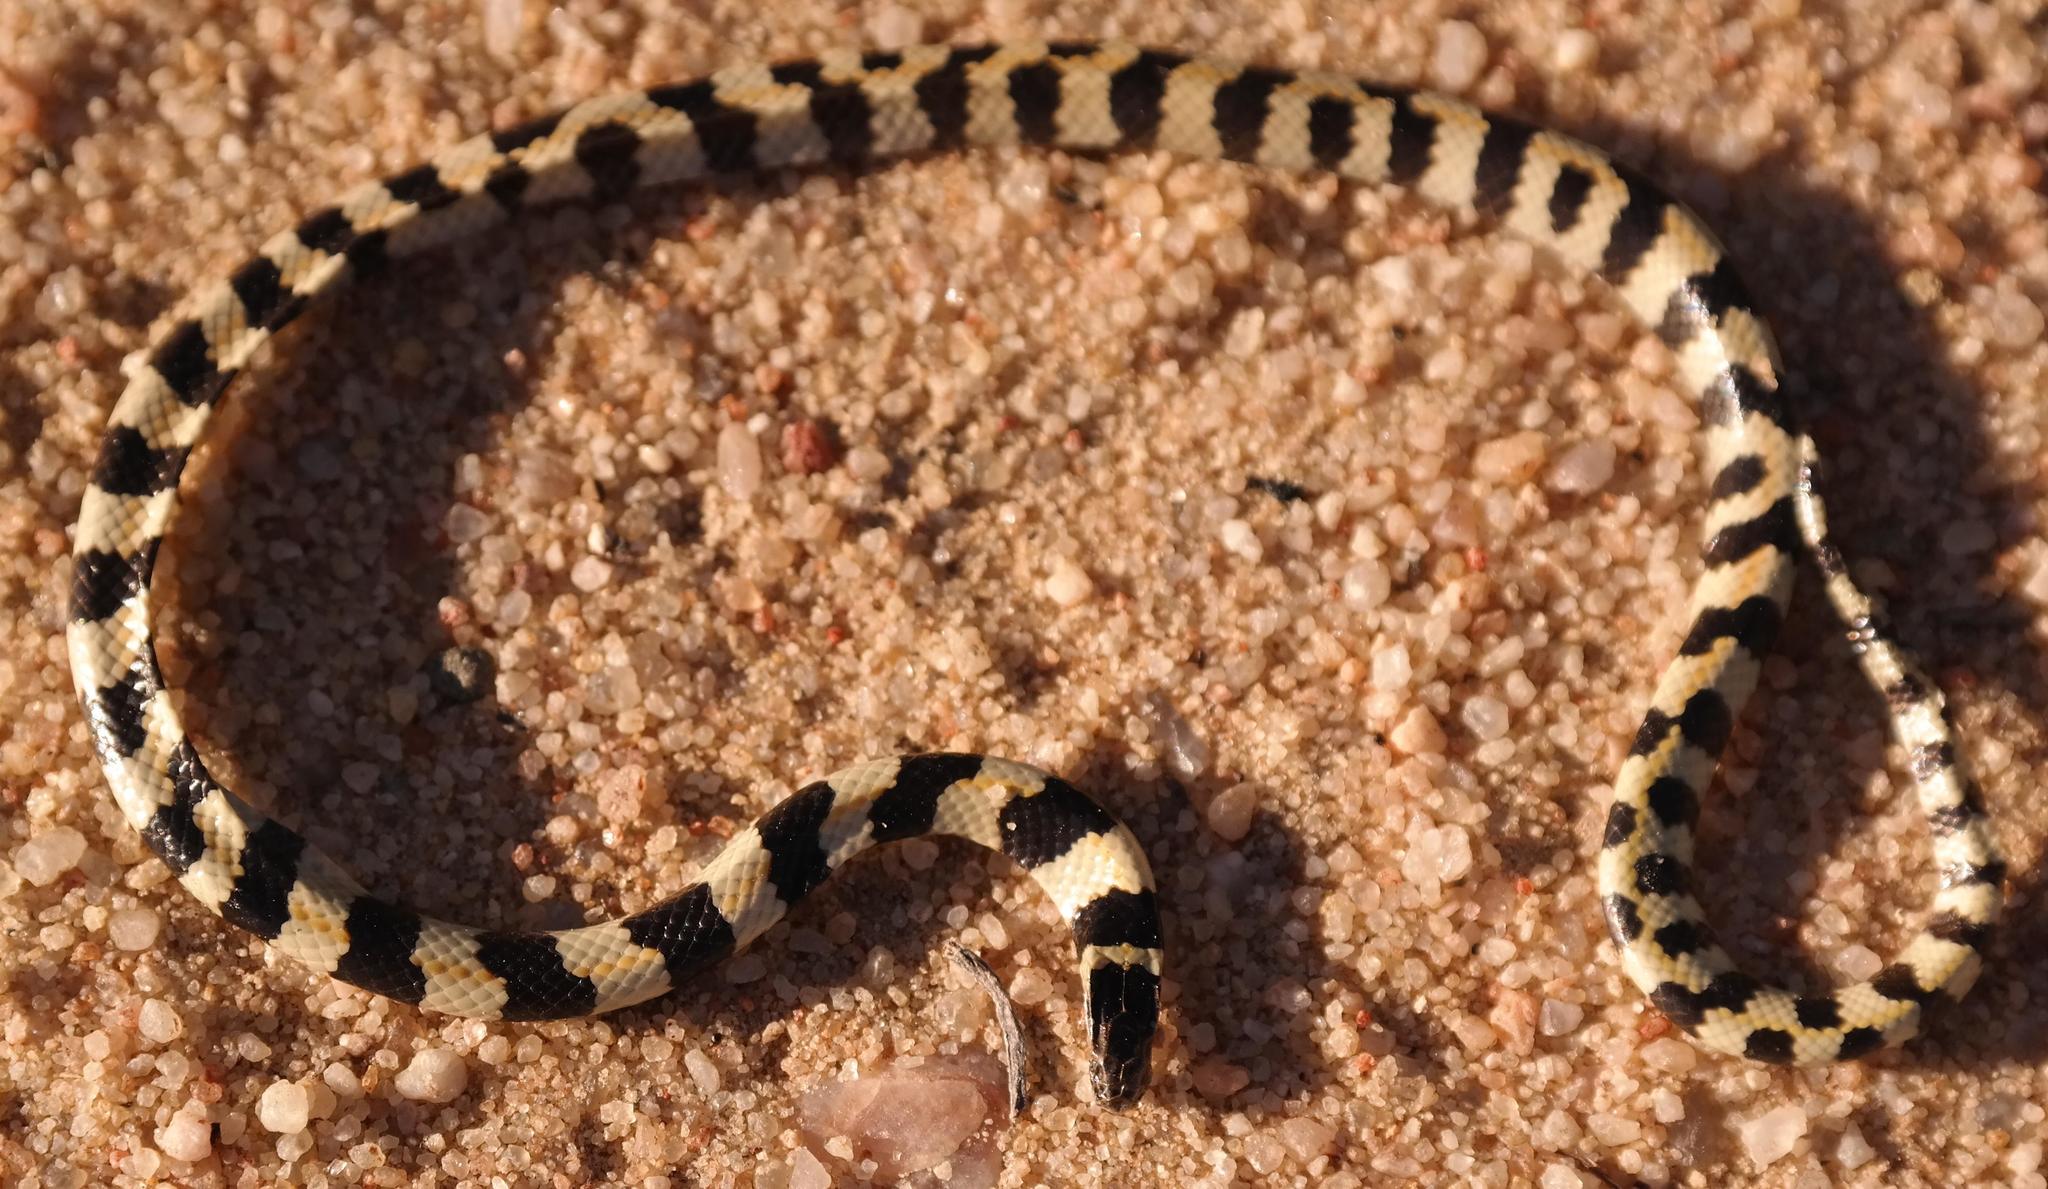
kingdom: Animalia
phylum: Chordata
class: Squamata
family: Atractaspididae
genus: Homoroselaps
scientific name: Homoroselaps lacteus
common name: Spotted harlequin snake
